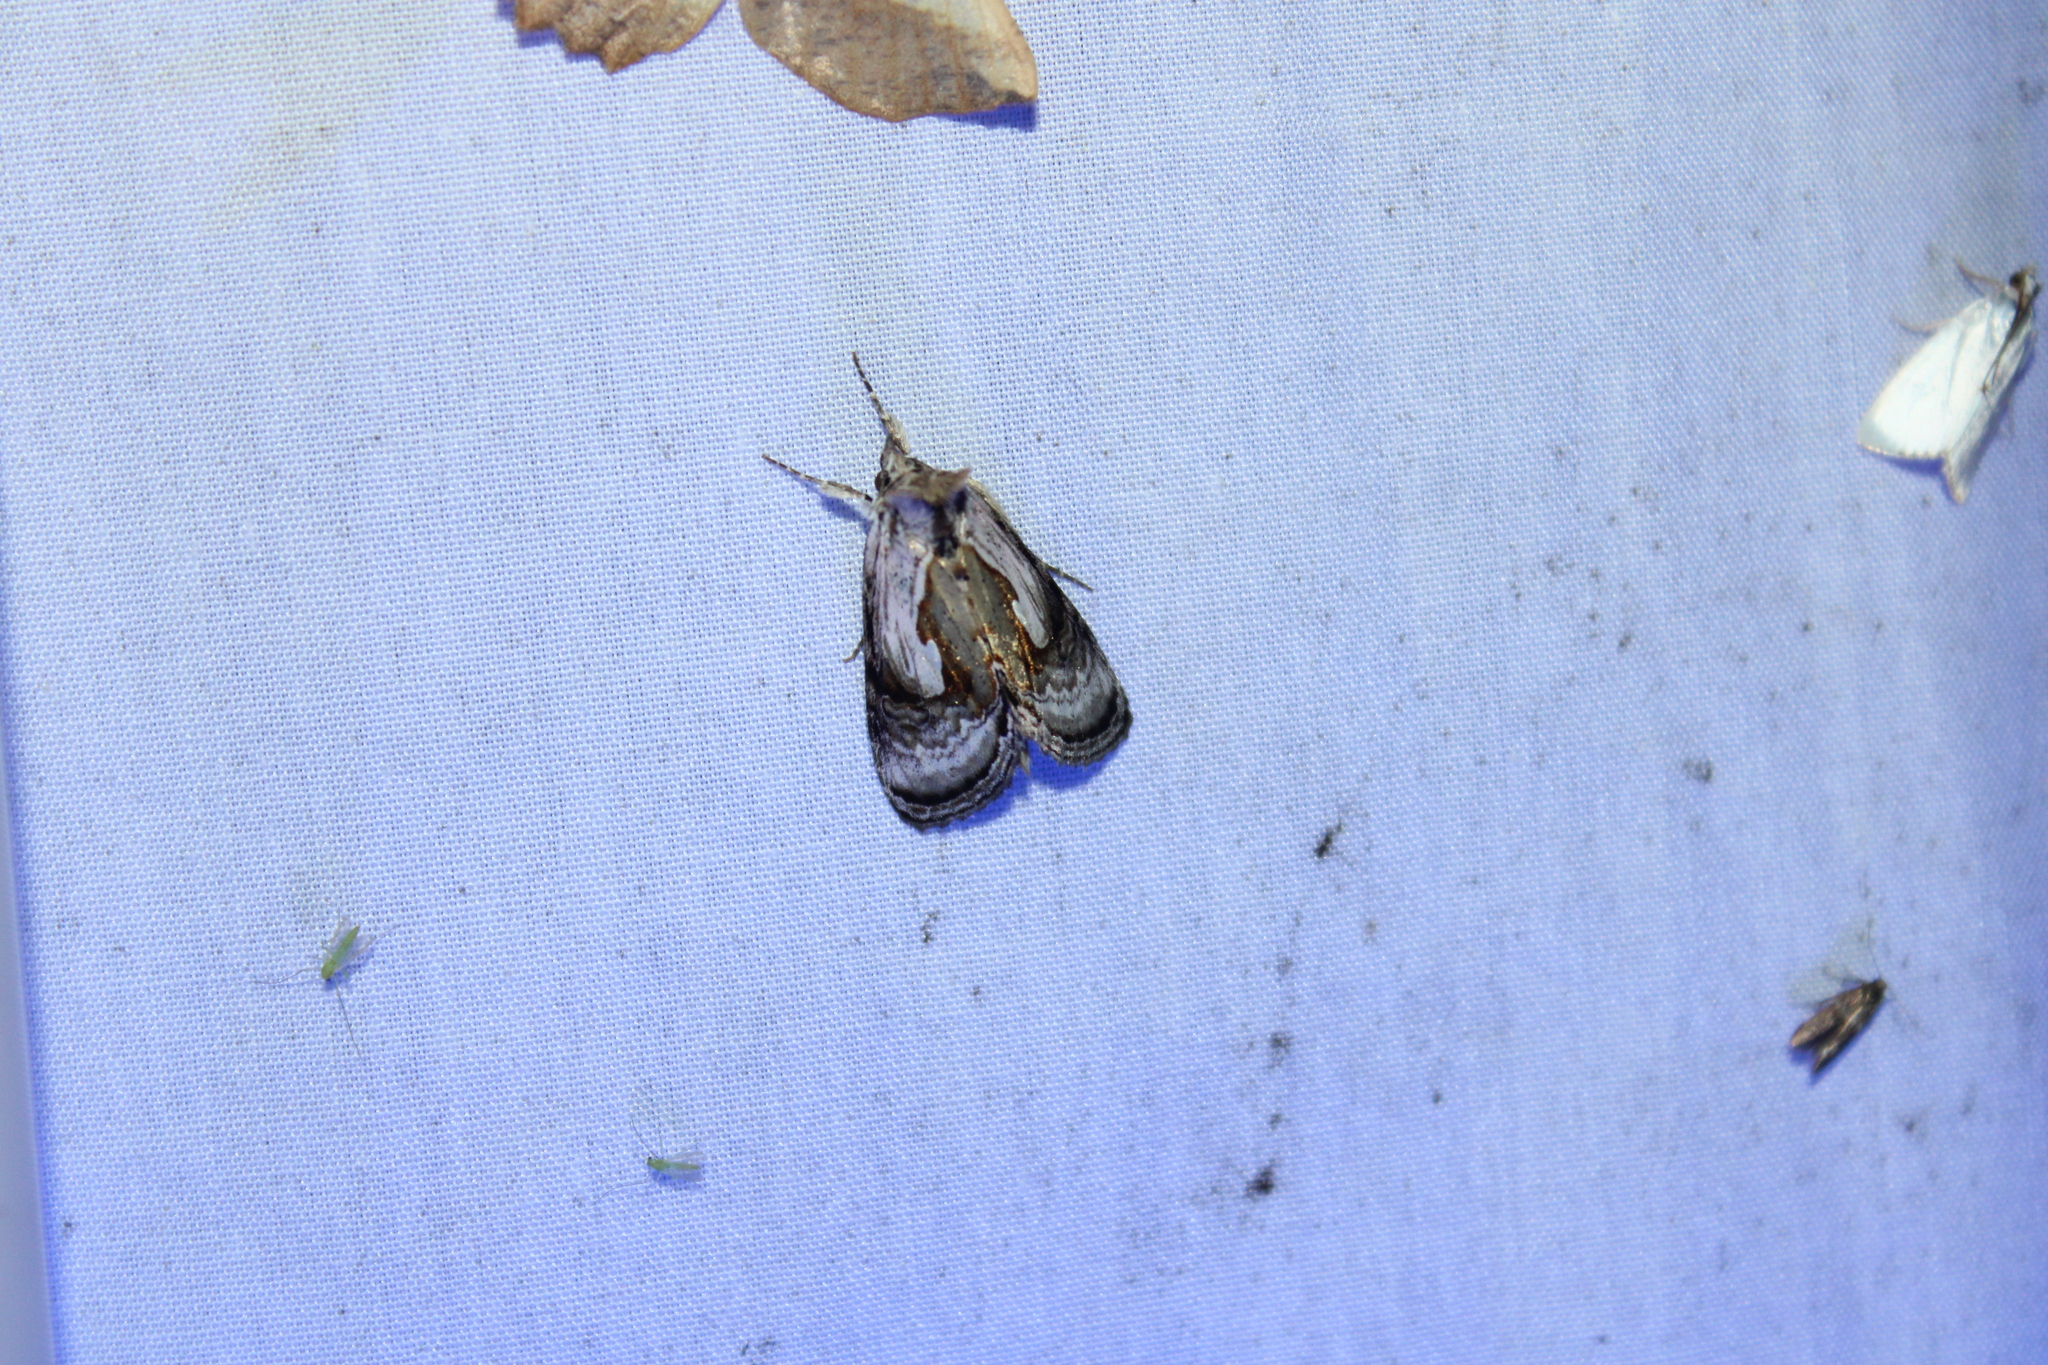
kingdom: Animalia
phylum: Arthropoda
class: Insecta
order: Lepidoptera
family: Noctuidae
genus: Chrysanympha
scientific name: Chrysanympha formosa
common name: Formosa looper moth
